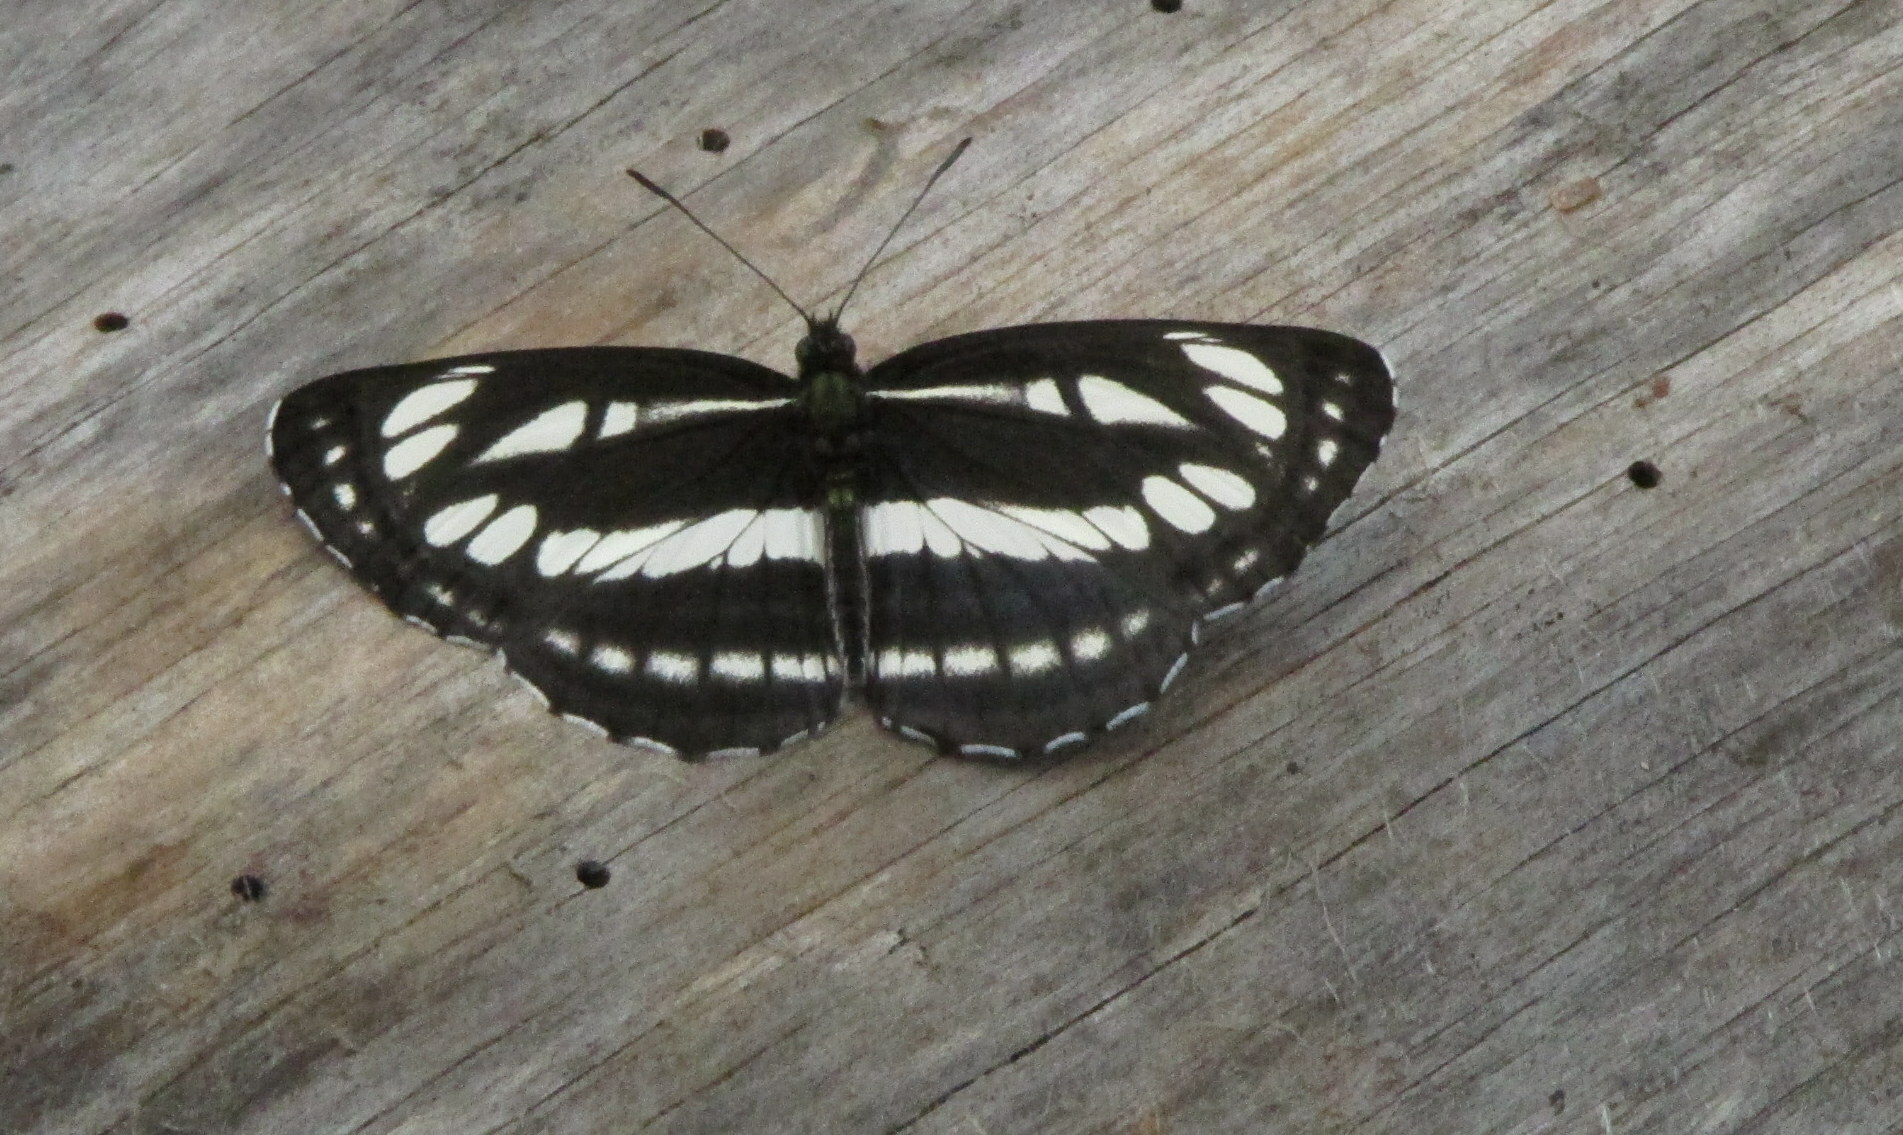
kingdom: Animalia
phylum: Arthropoda
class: Insecta
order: Lepidoptera
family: Nymphalidae
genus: Neptis
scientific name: Neptis sappho
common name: Common glider
